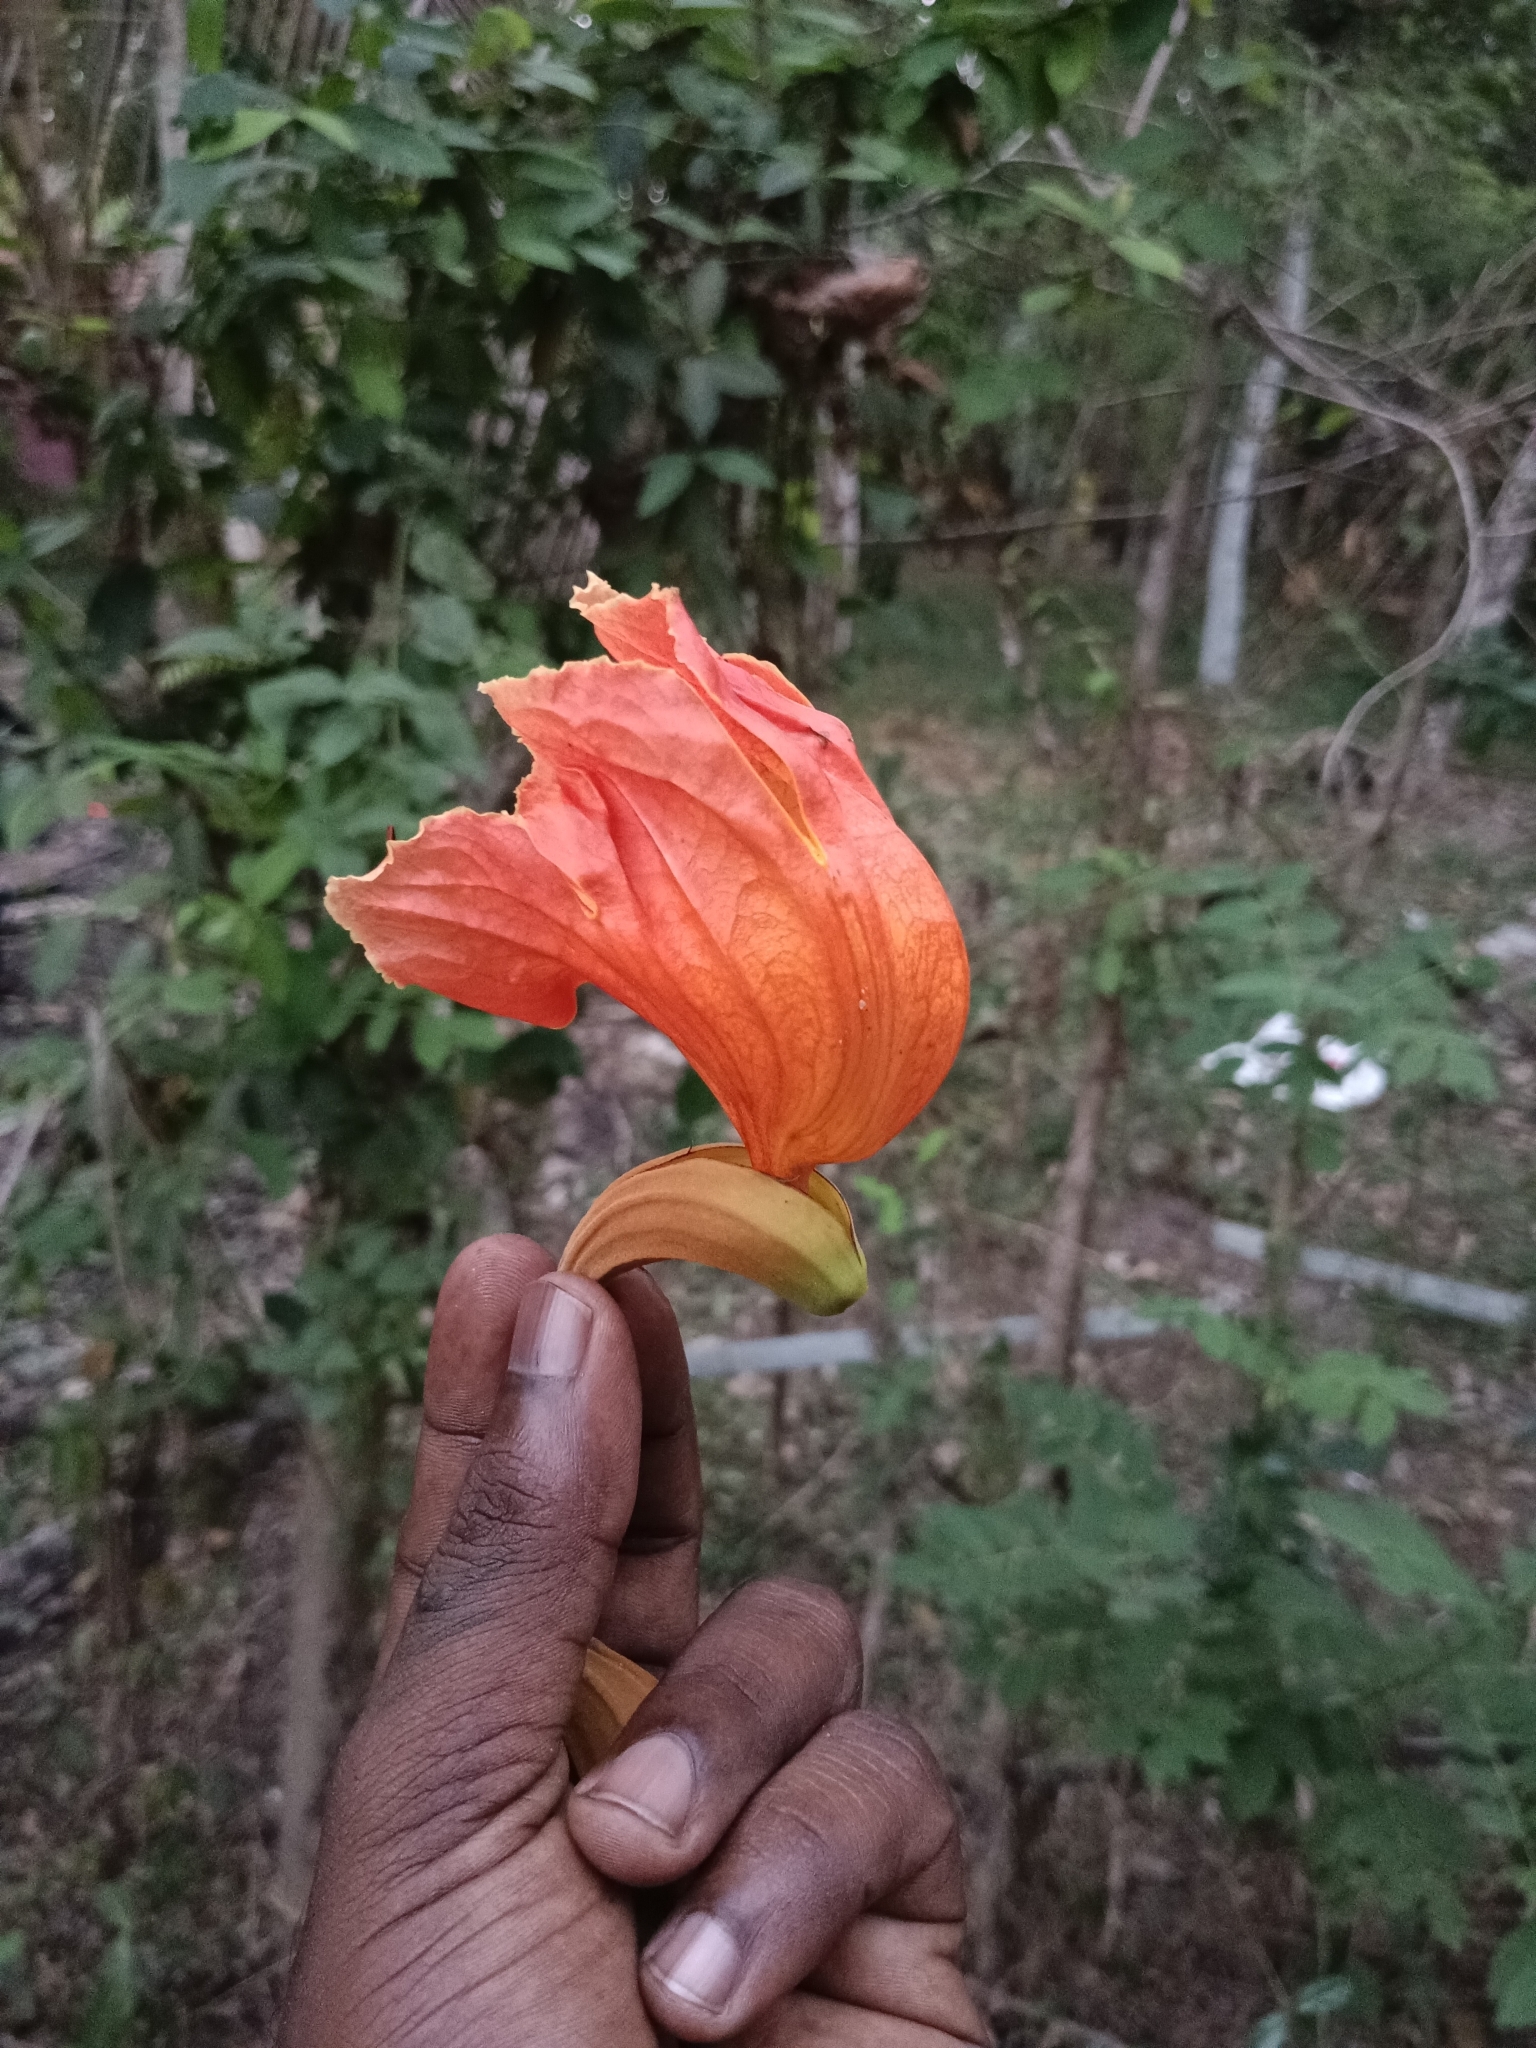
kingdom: Plantae
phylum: Tracheophyta
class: Magnoliopsida
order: Lamiales
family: Bignoniaceae
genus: Spathodea
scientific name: Spathodea campanulata
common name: African tuliptree
